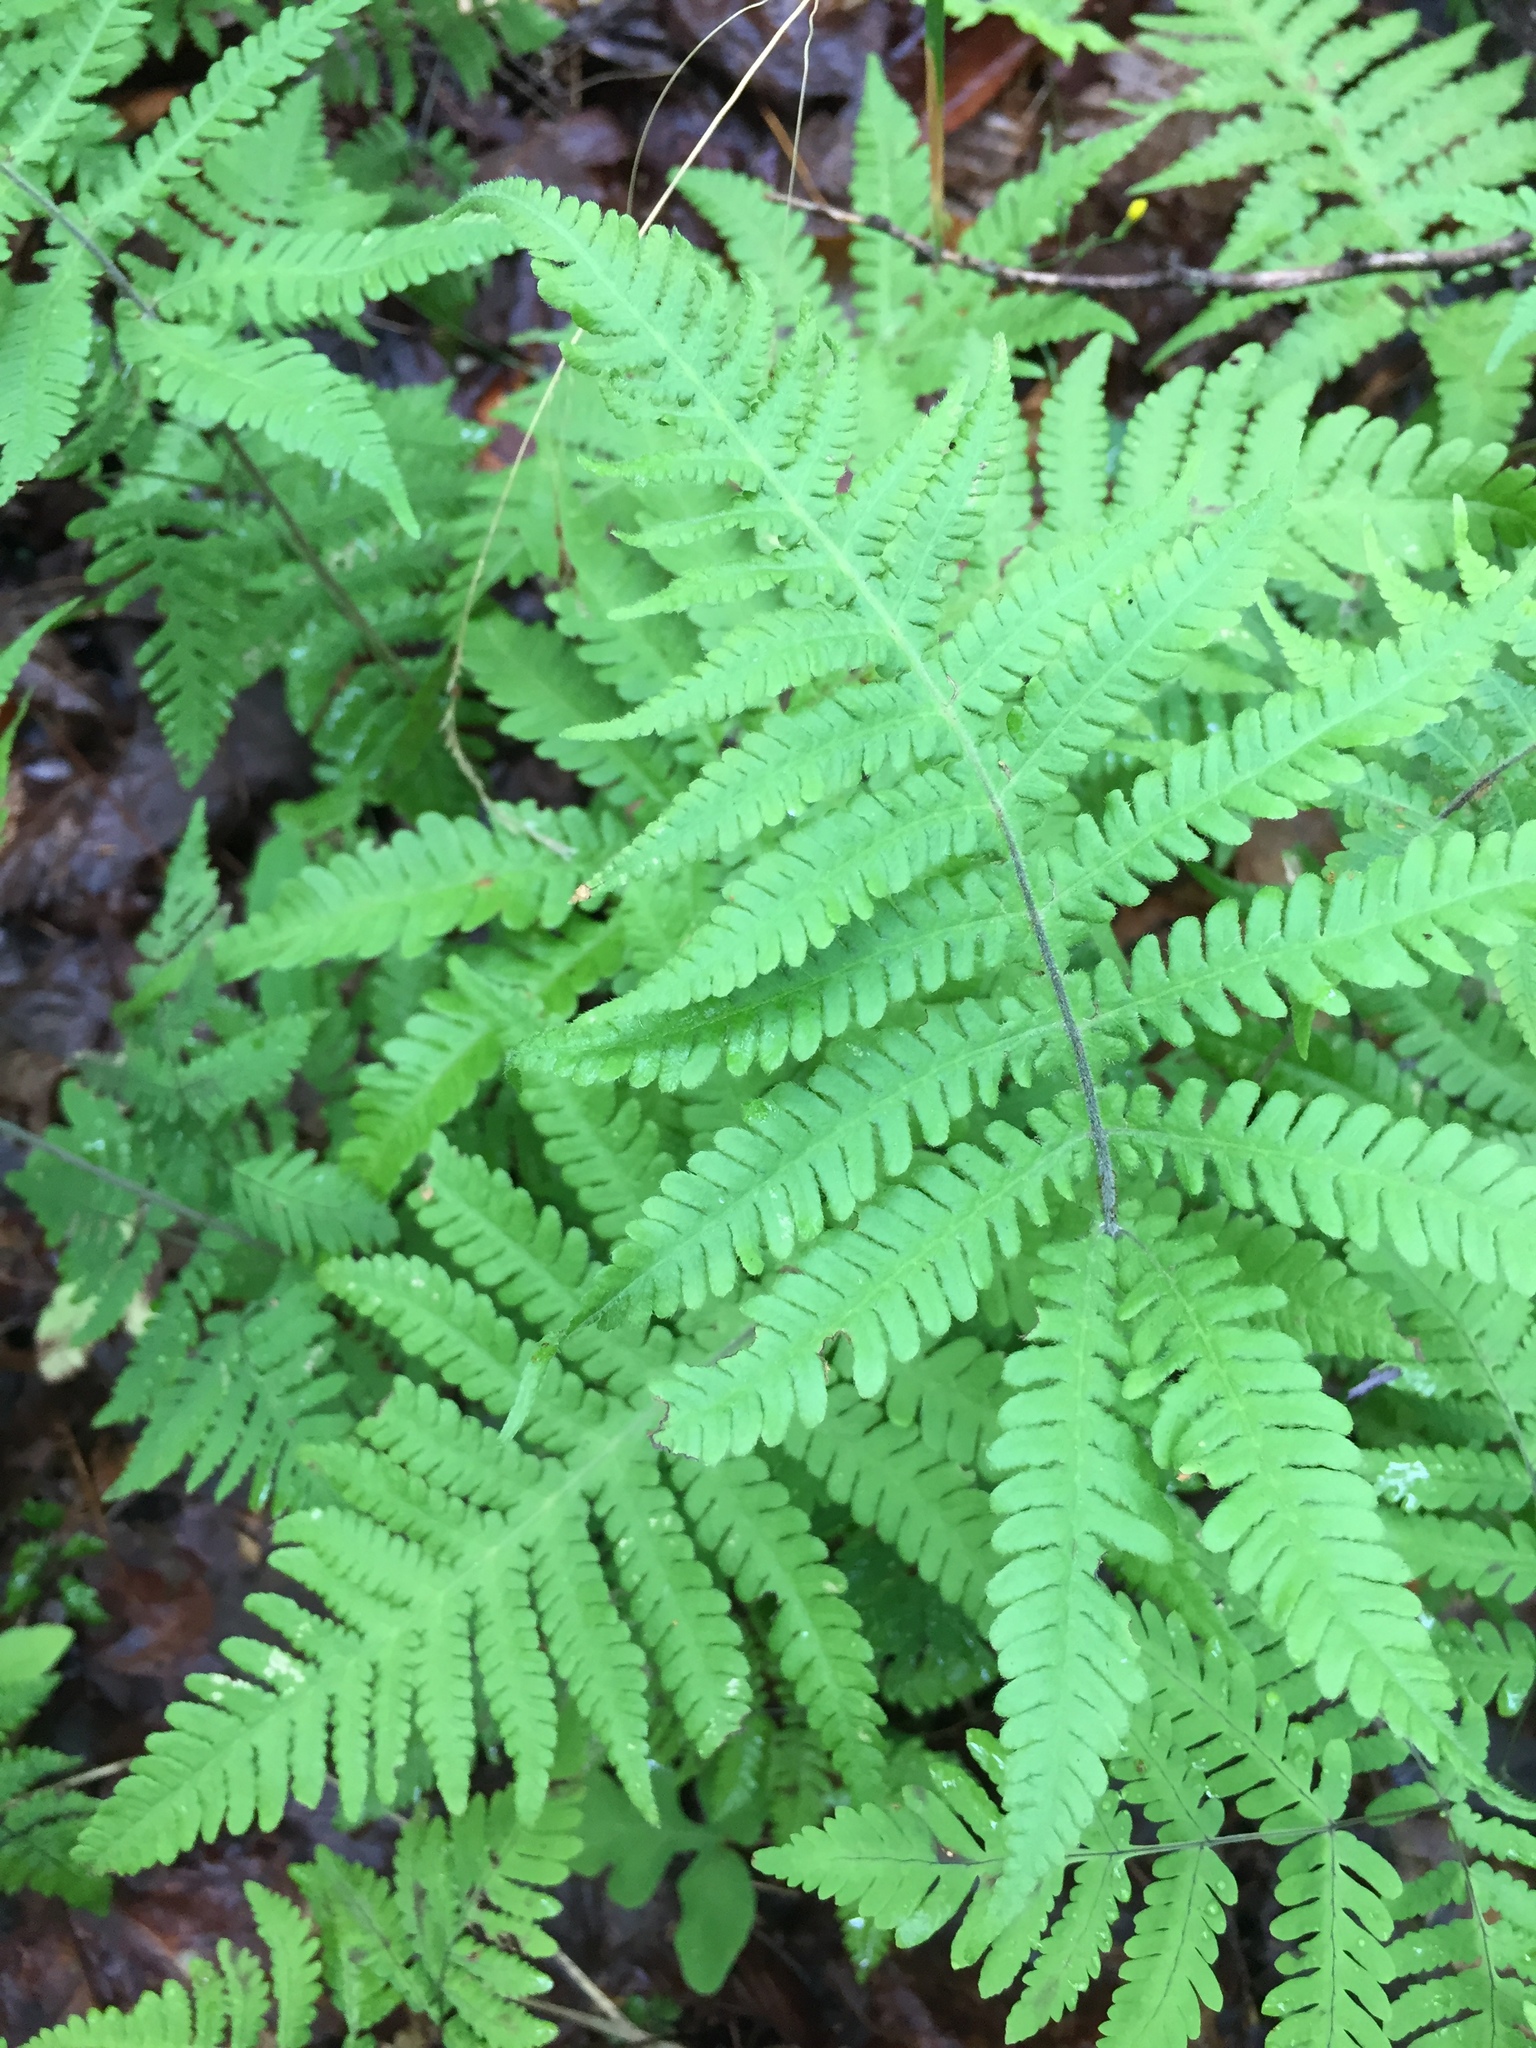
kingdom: Plantae
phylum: Tracheophyta
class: Polypodiopsida
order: Polypodiales
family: Thelypteridaceae
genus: Phegopteris
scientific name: Phegopteris connectilis
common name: Beech fern
